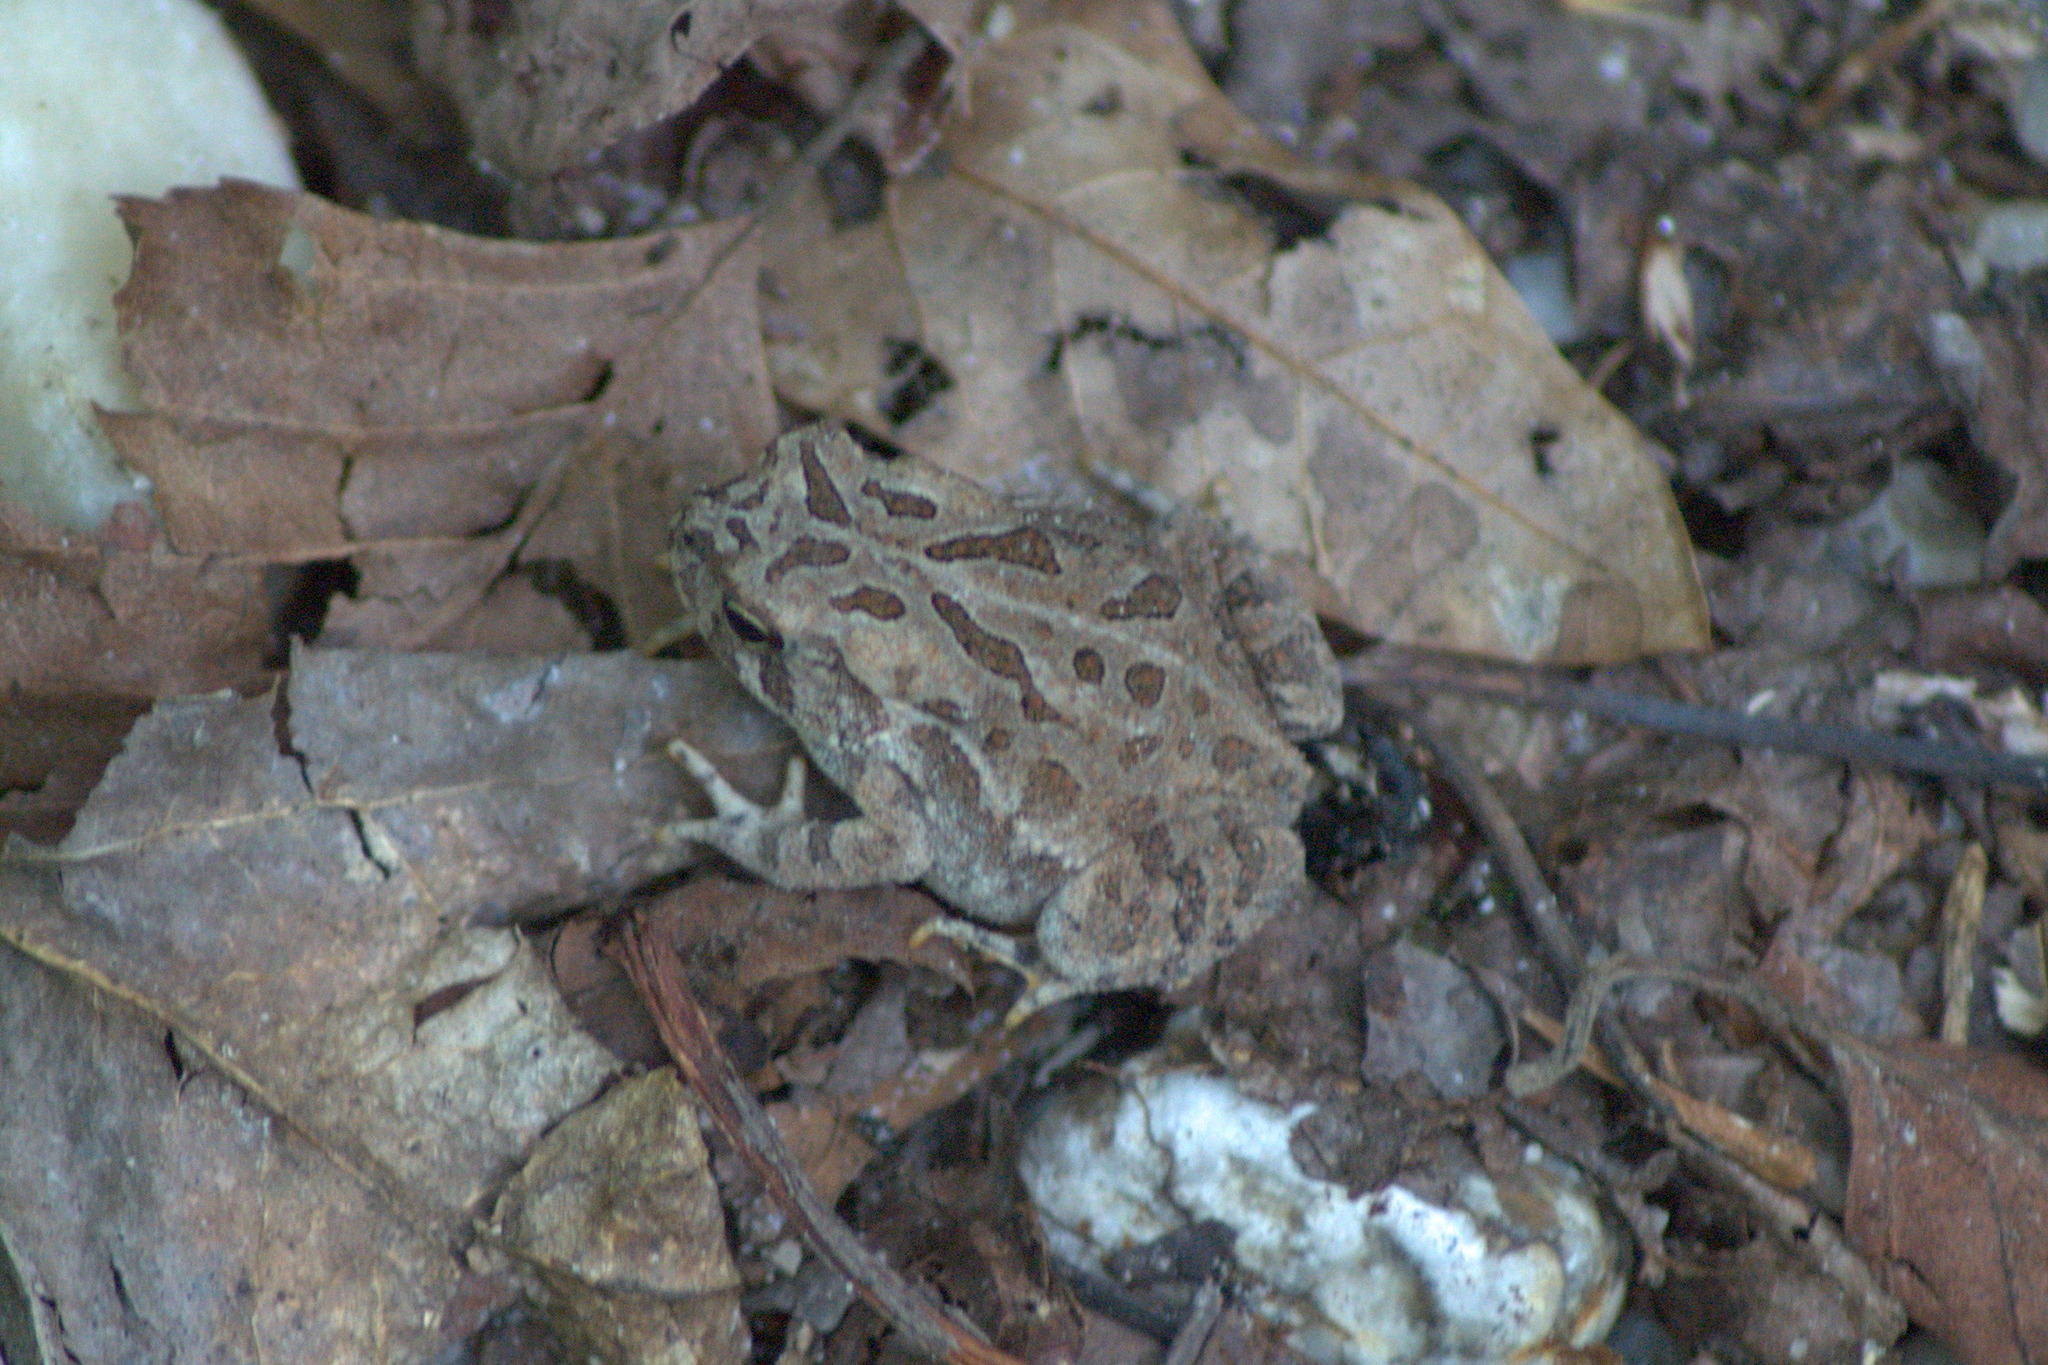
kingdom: Animalia
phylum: Chordata
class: Amphibia
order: Anura
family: Bufonidae
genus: Anaxyrus
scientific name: Anaxyrus fowleri
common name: Fowler's toad
